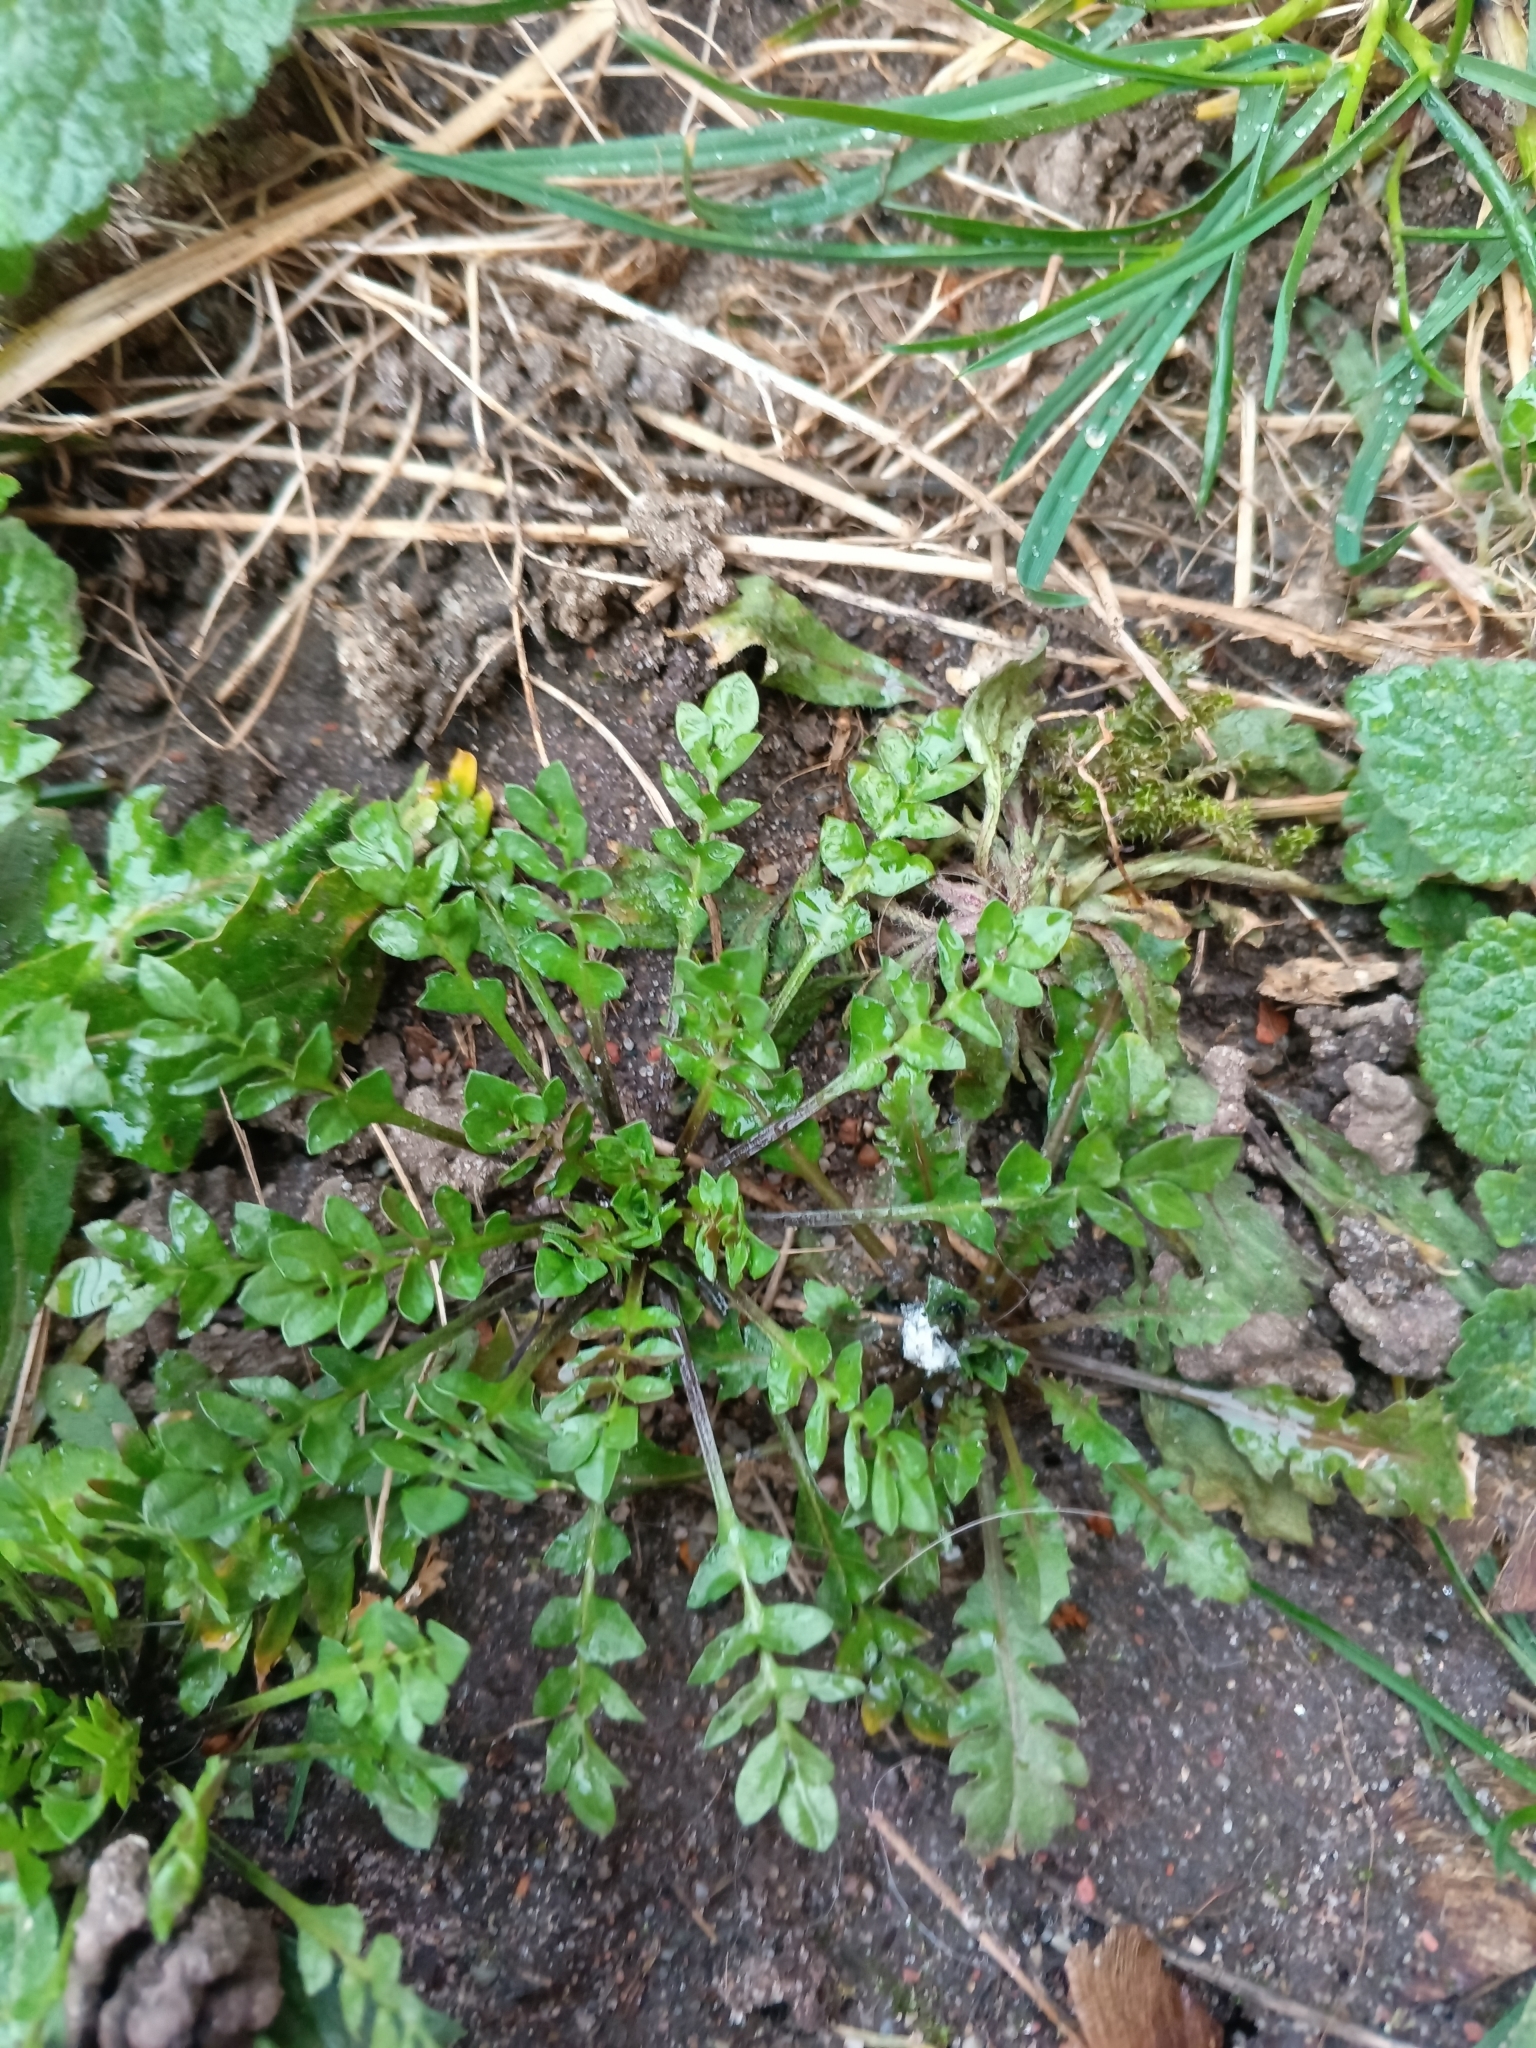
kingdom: Plantae
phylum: Tracheophyta
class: Magnoliopsida
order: Brassicales
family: Brassicaceae
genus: Capsella
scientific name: Capsella bursa-pastoris
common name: Shepherd's purse
